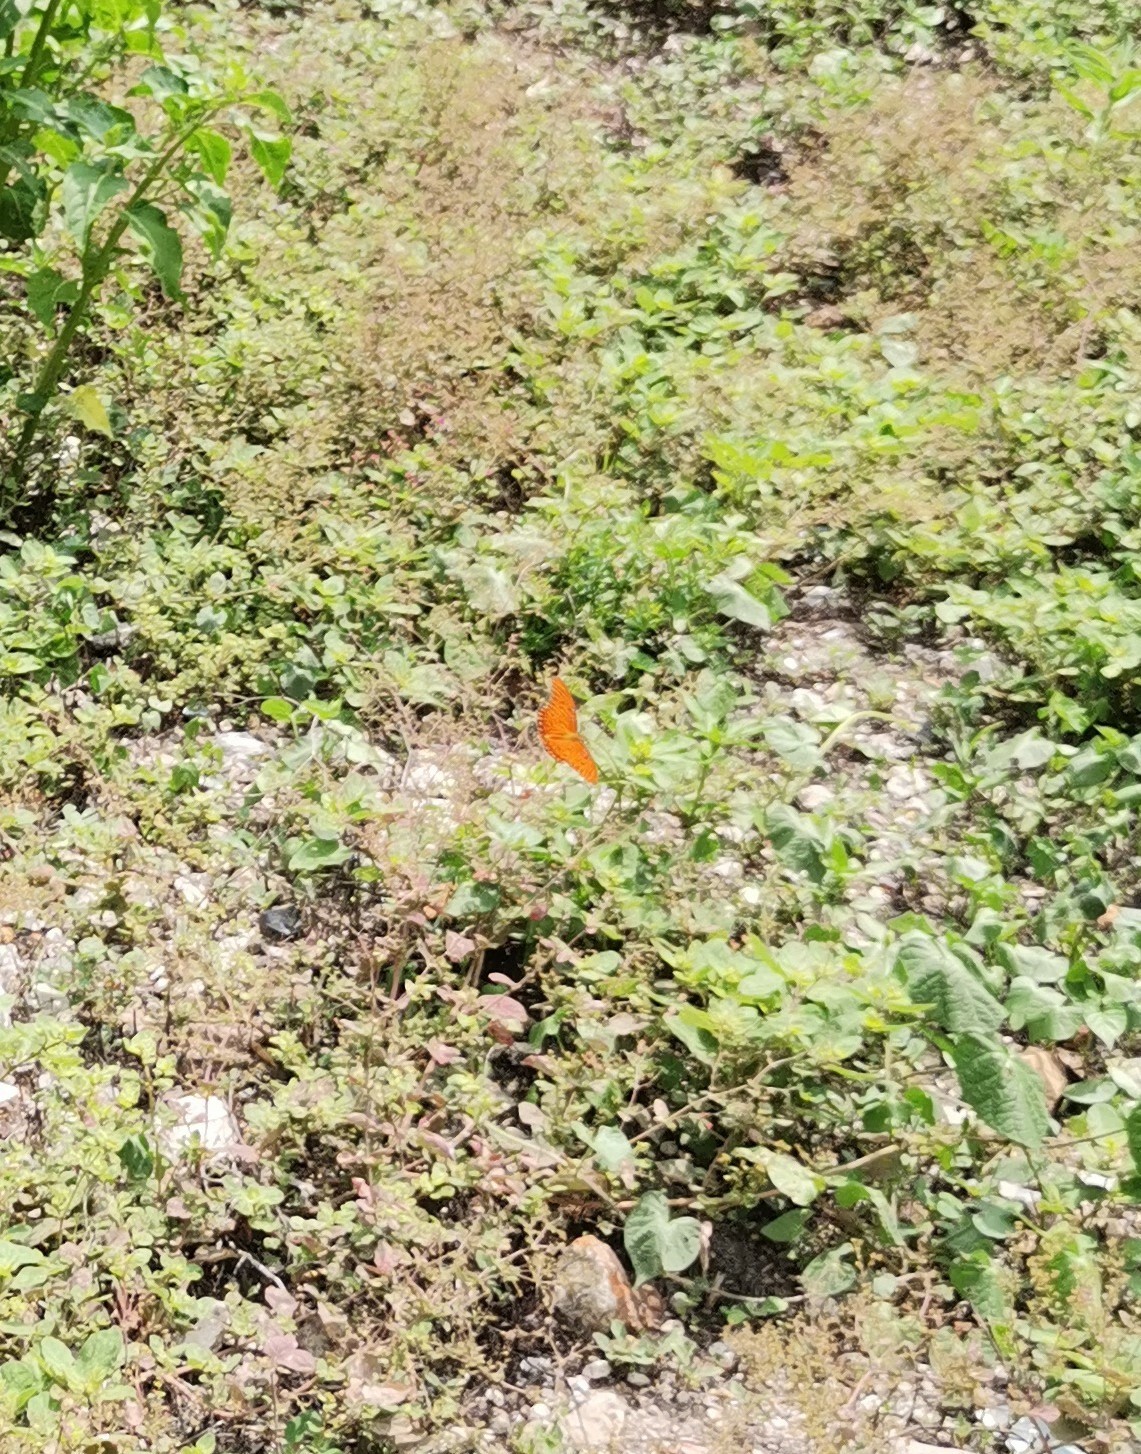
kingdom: Animalia
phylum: Arthropoda
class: Insecta
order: Lepidoptera
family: Nymphalidae
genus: Dione
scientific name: Dione vanillae
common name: Gulf fritillary
